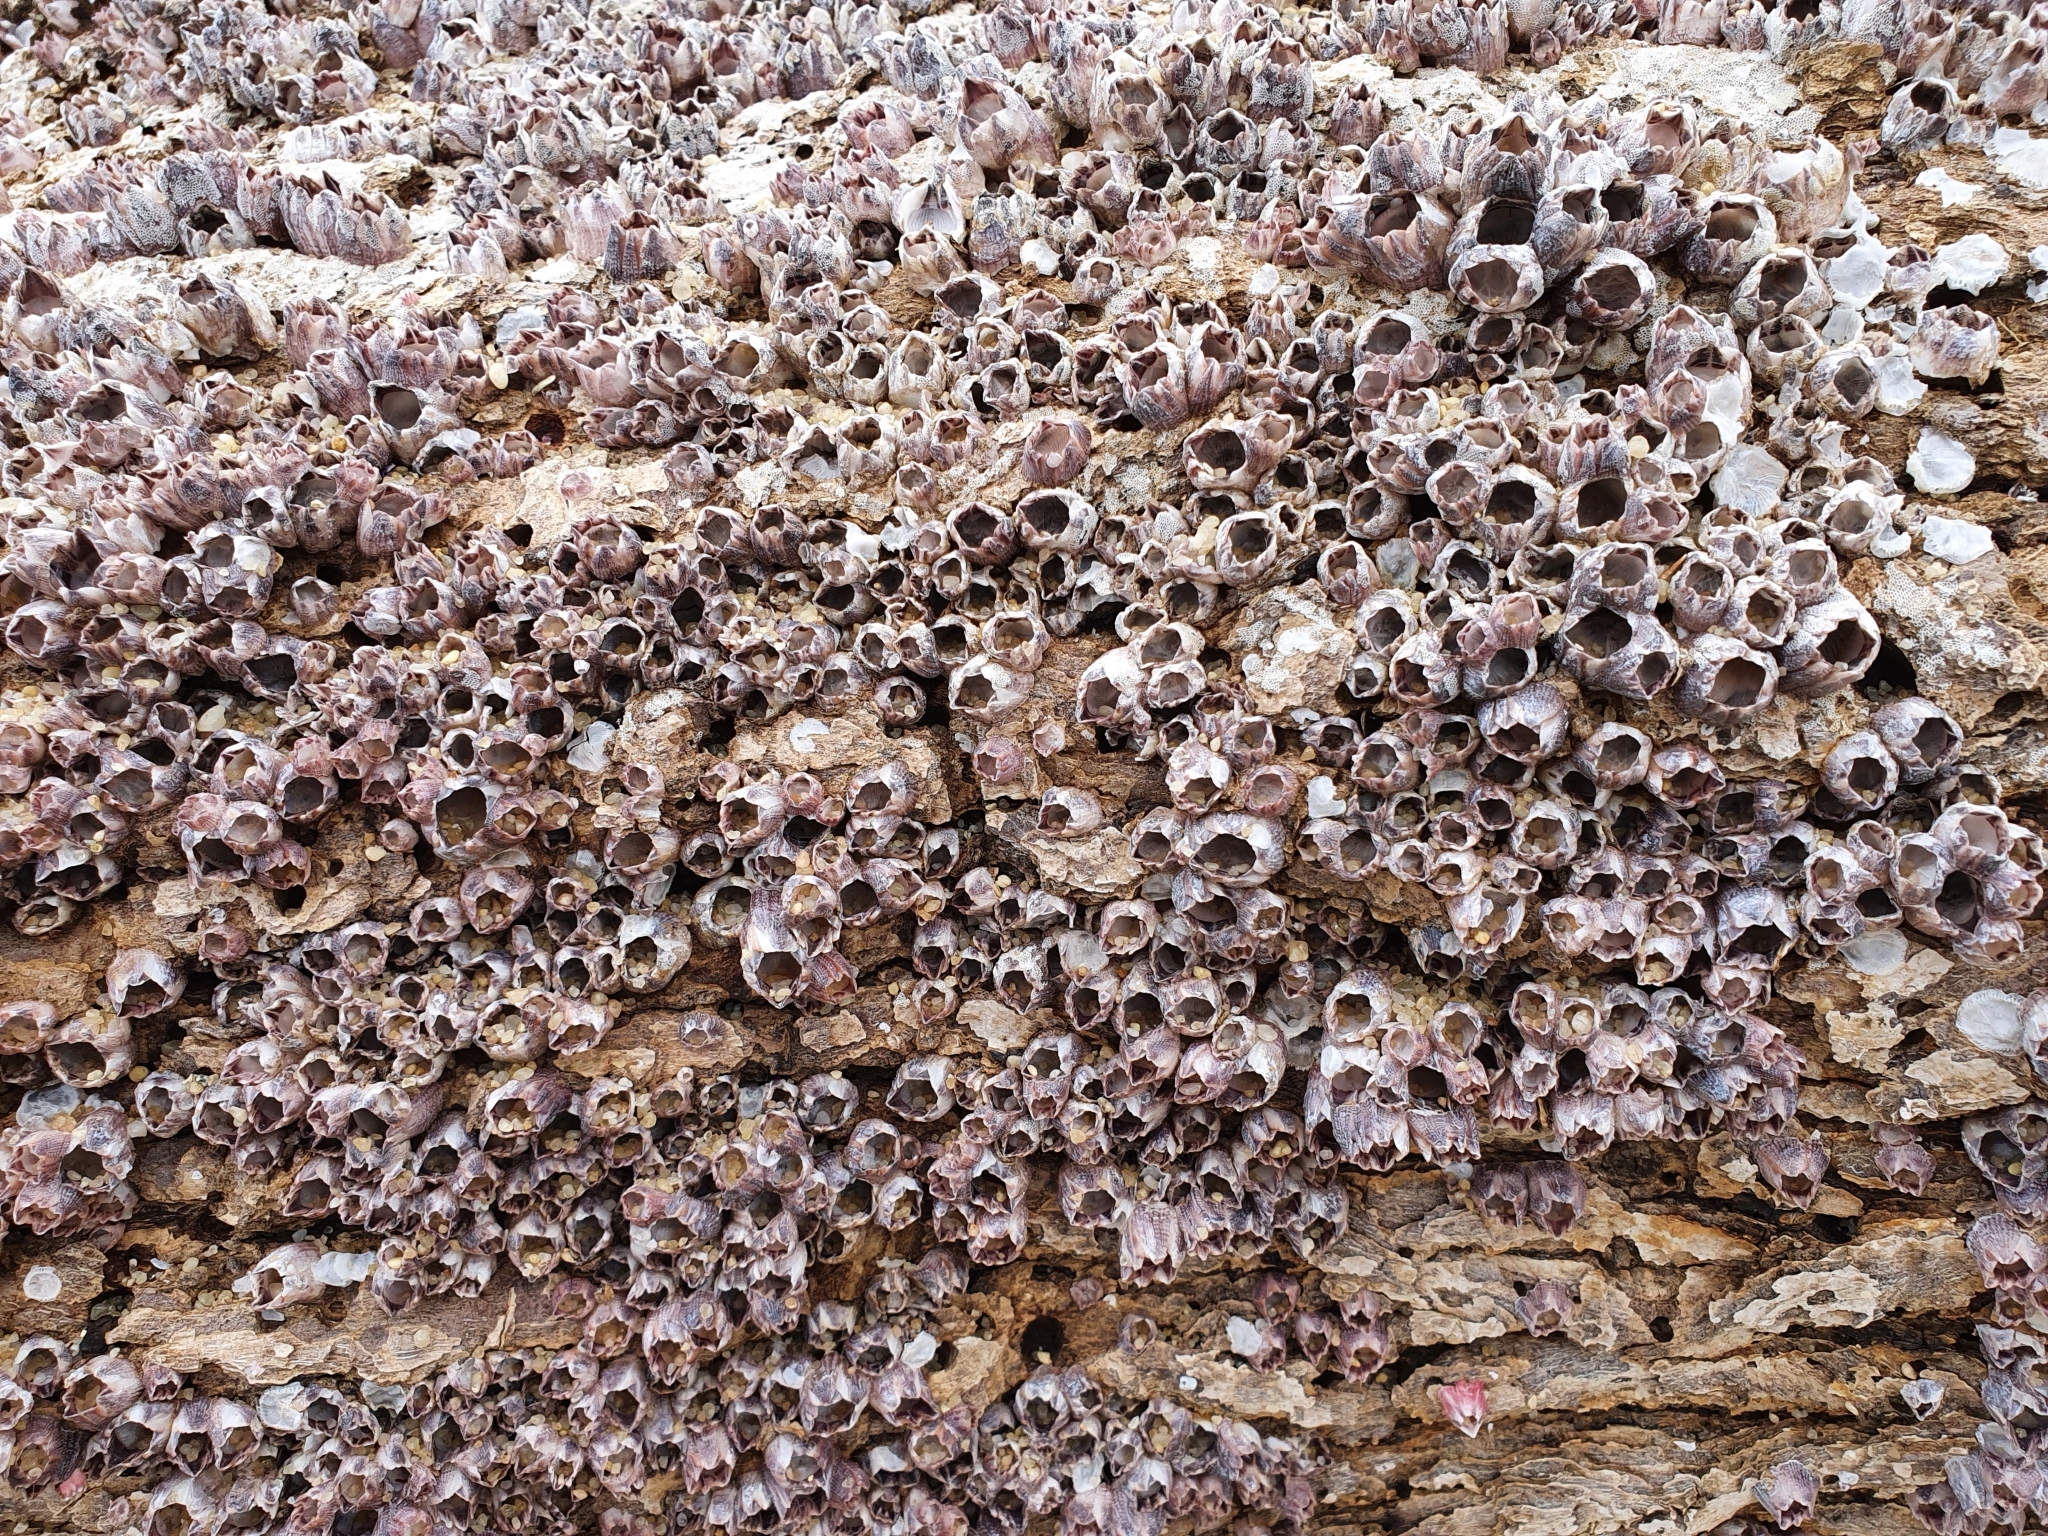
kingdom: Animalia
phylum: Arthropoda
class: Maxillopoda
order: Sessilia
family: Balanidae
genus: Amphibalanus
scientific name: Amphibalanus variegatus
